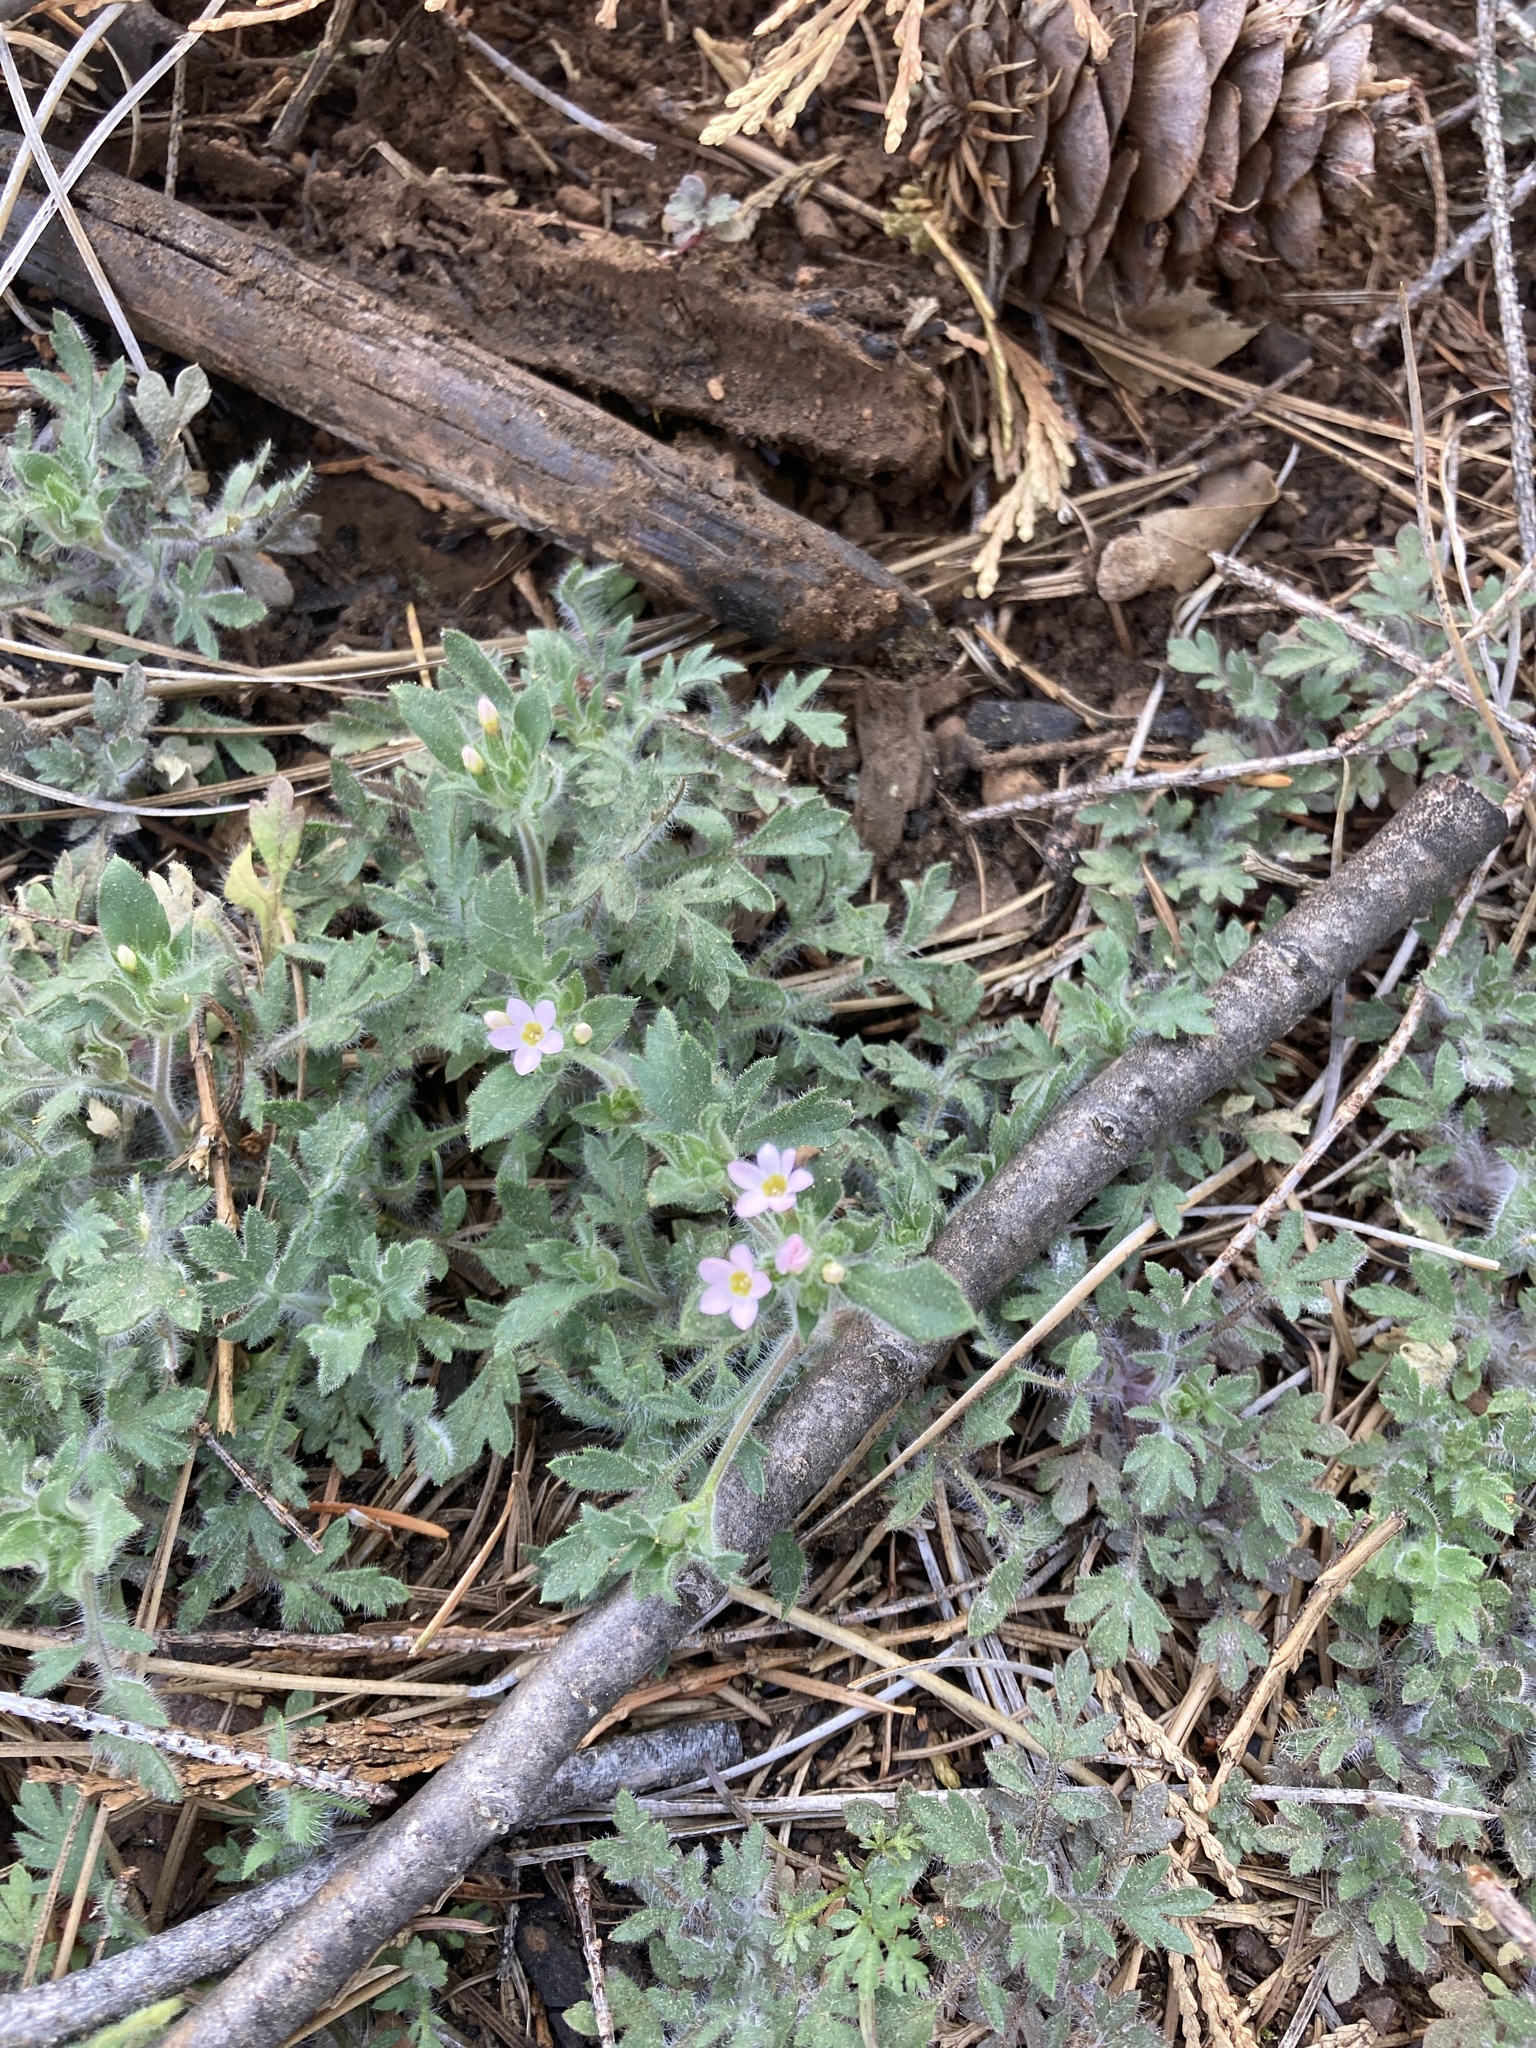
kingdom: Plantae
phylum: Tracheophyta
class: Magnoliopsida
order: Ericales
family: Polemoniaceae
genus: Collomia
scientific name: Collomia heterophylla
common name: Variable-leaved collomia
